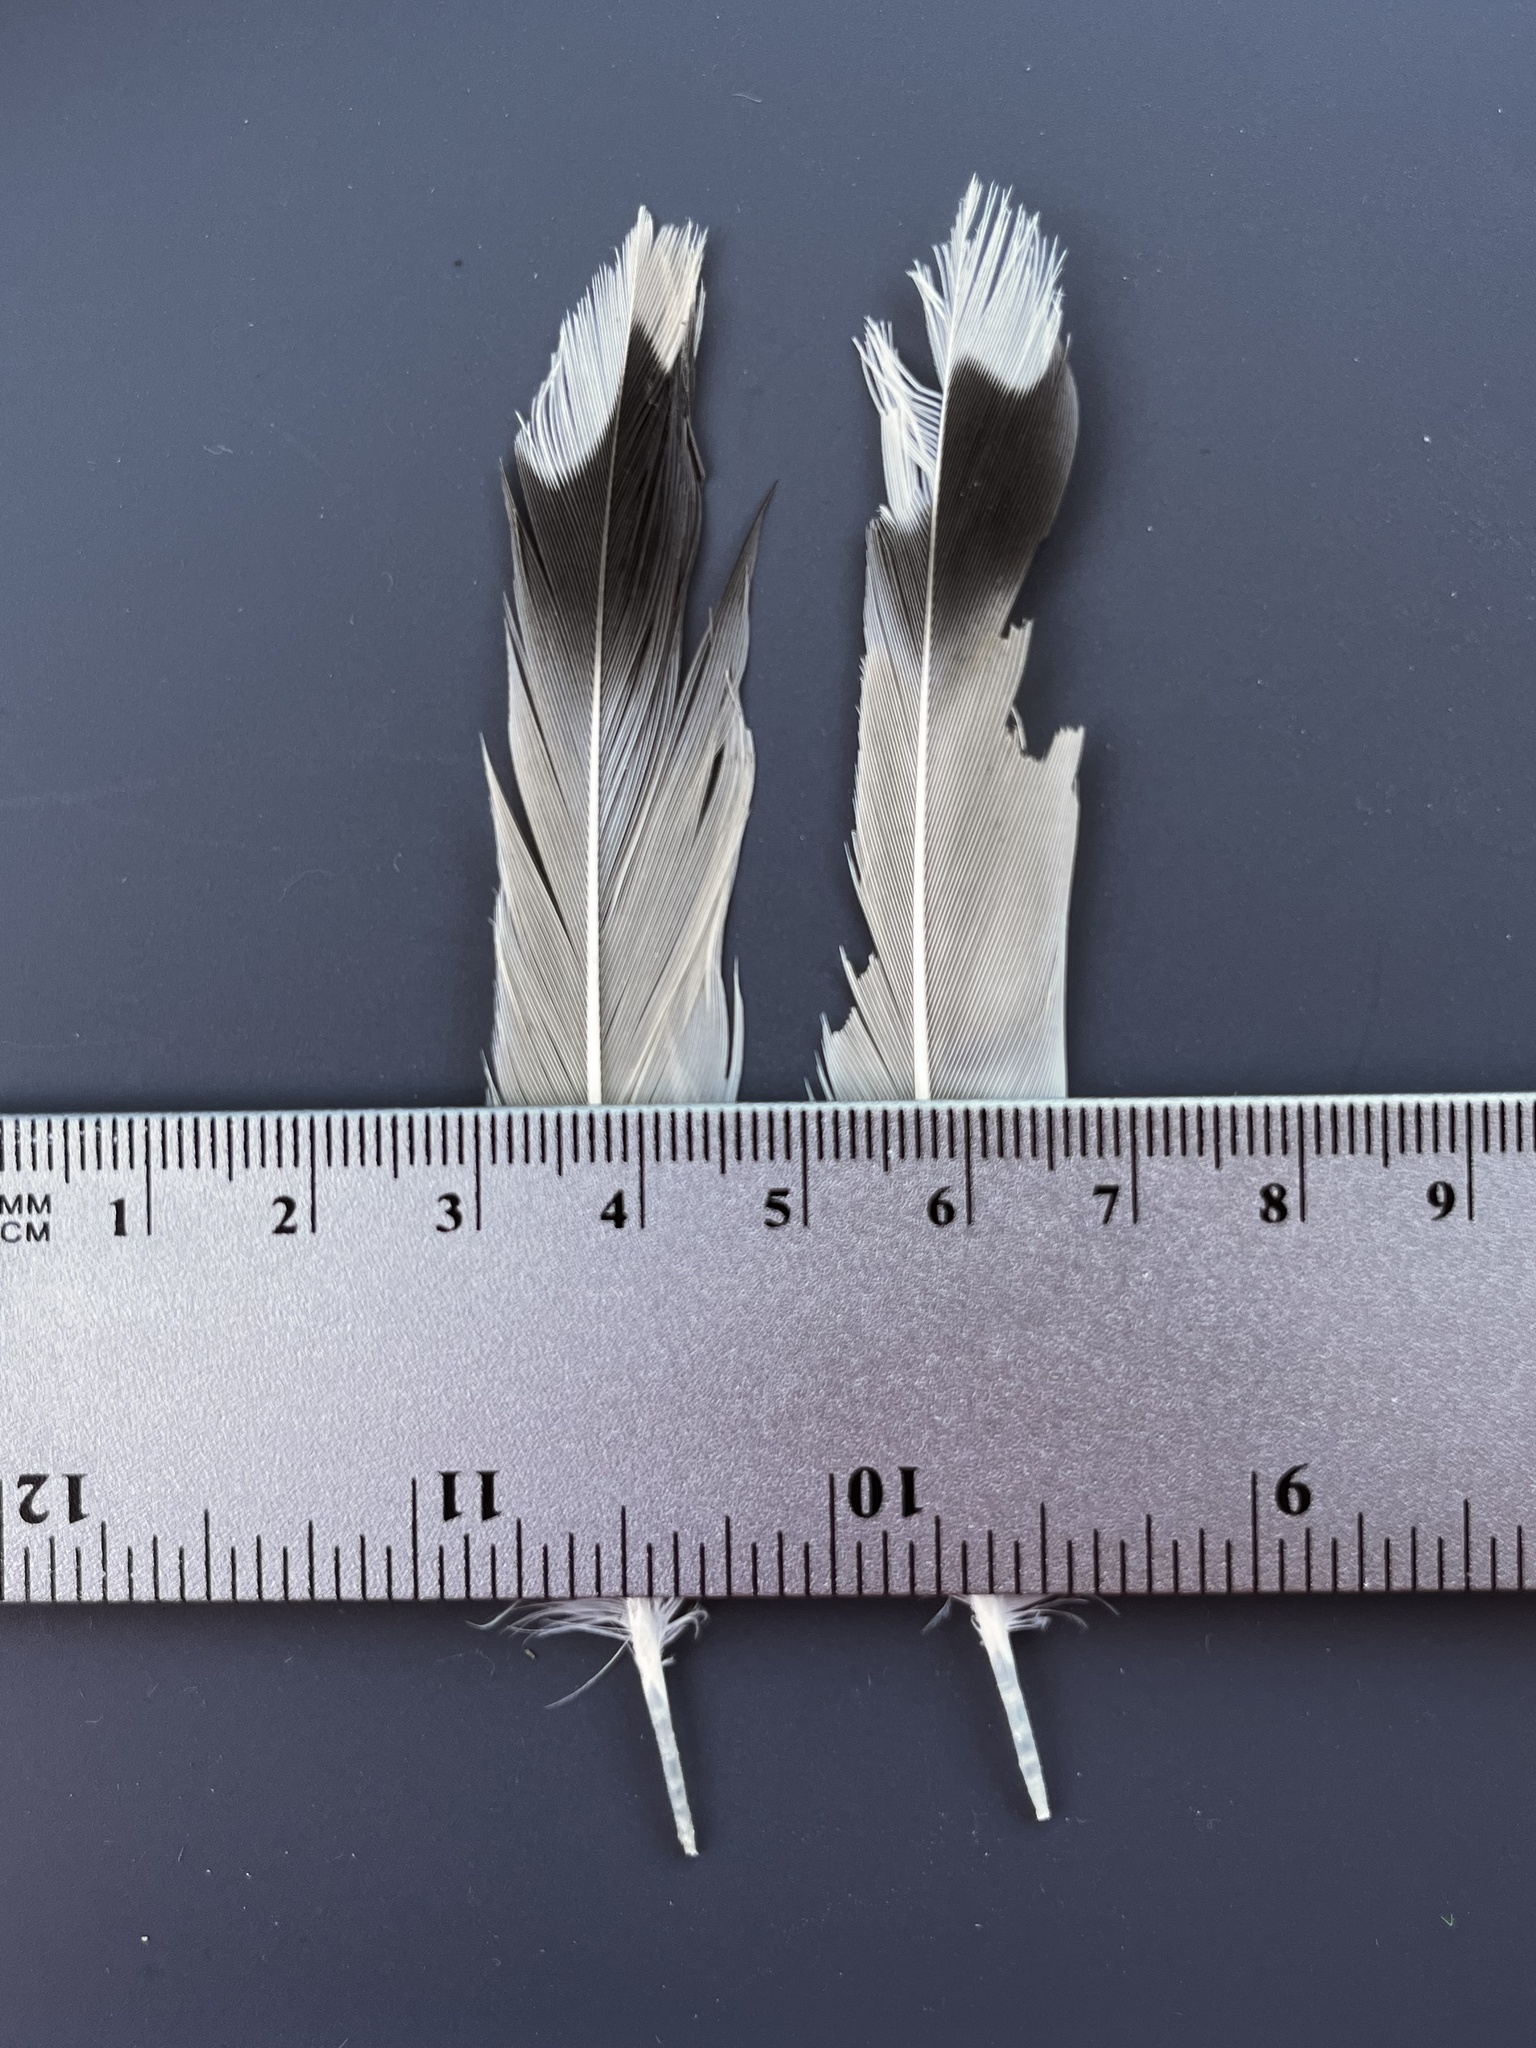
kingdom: Animalia
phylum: Chordata
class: Aves
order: Charadriiformes
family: Charadriidae
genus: Charadrius
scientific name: Charadrius vociferus
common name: Killdeer
